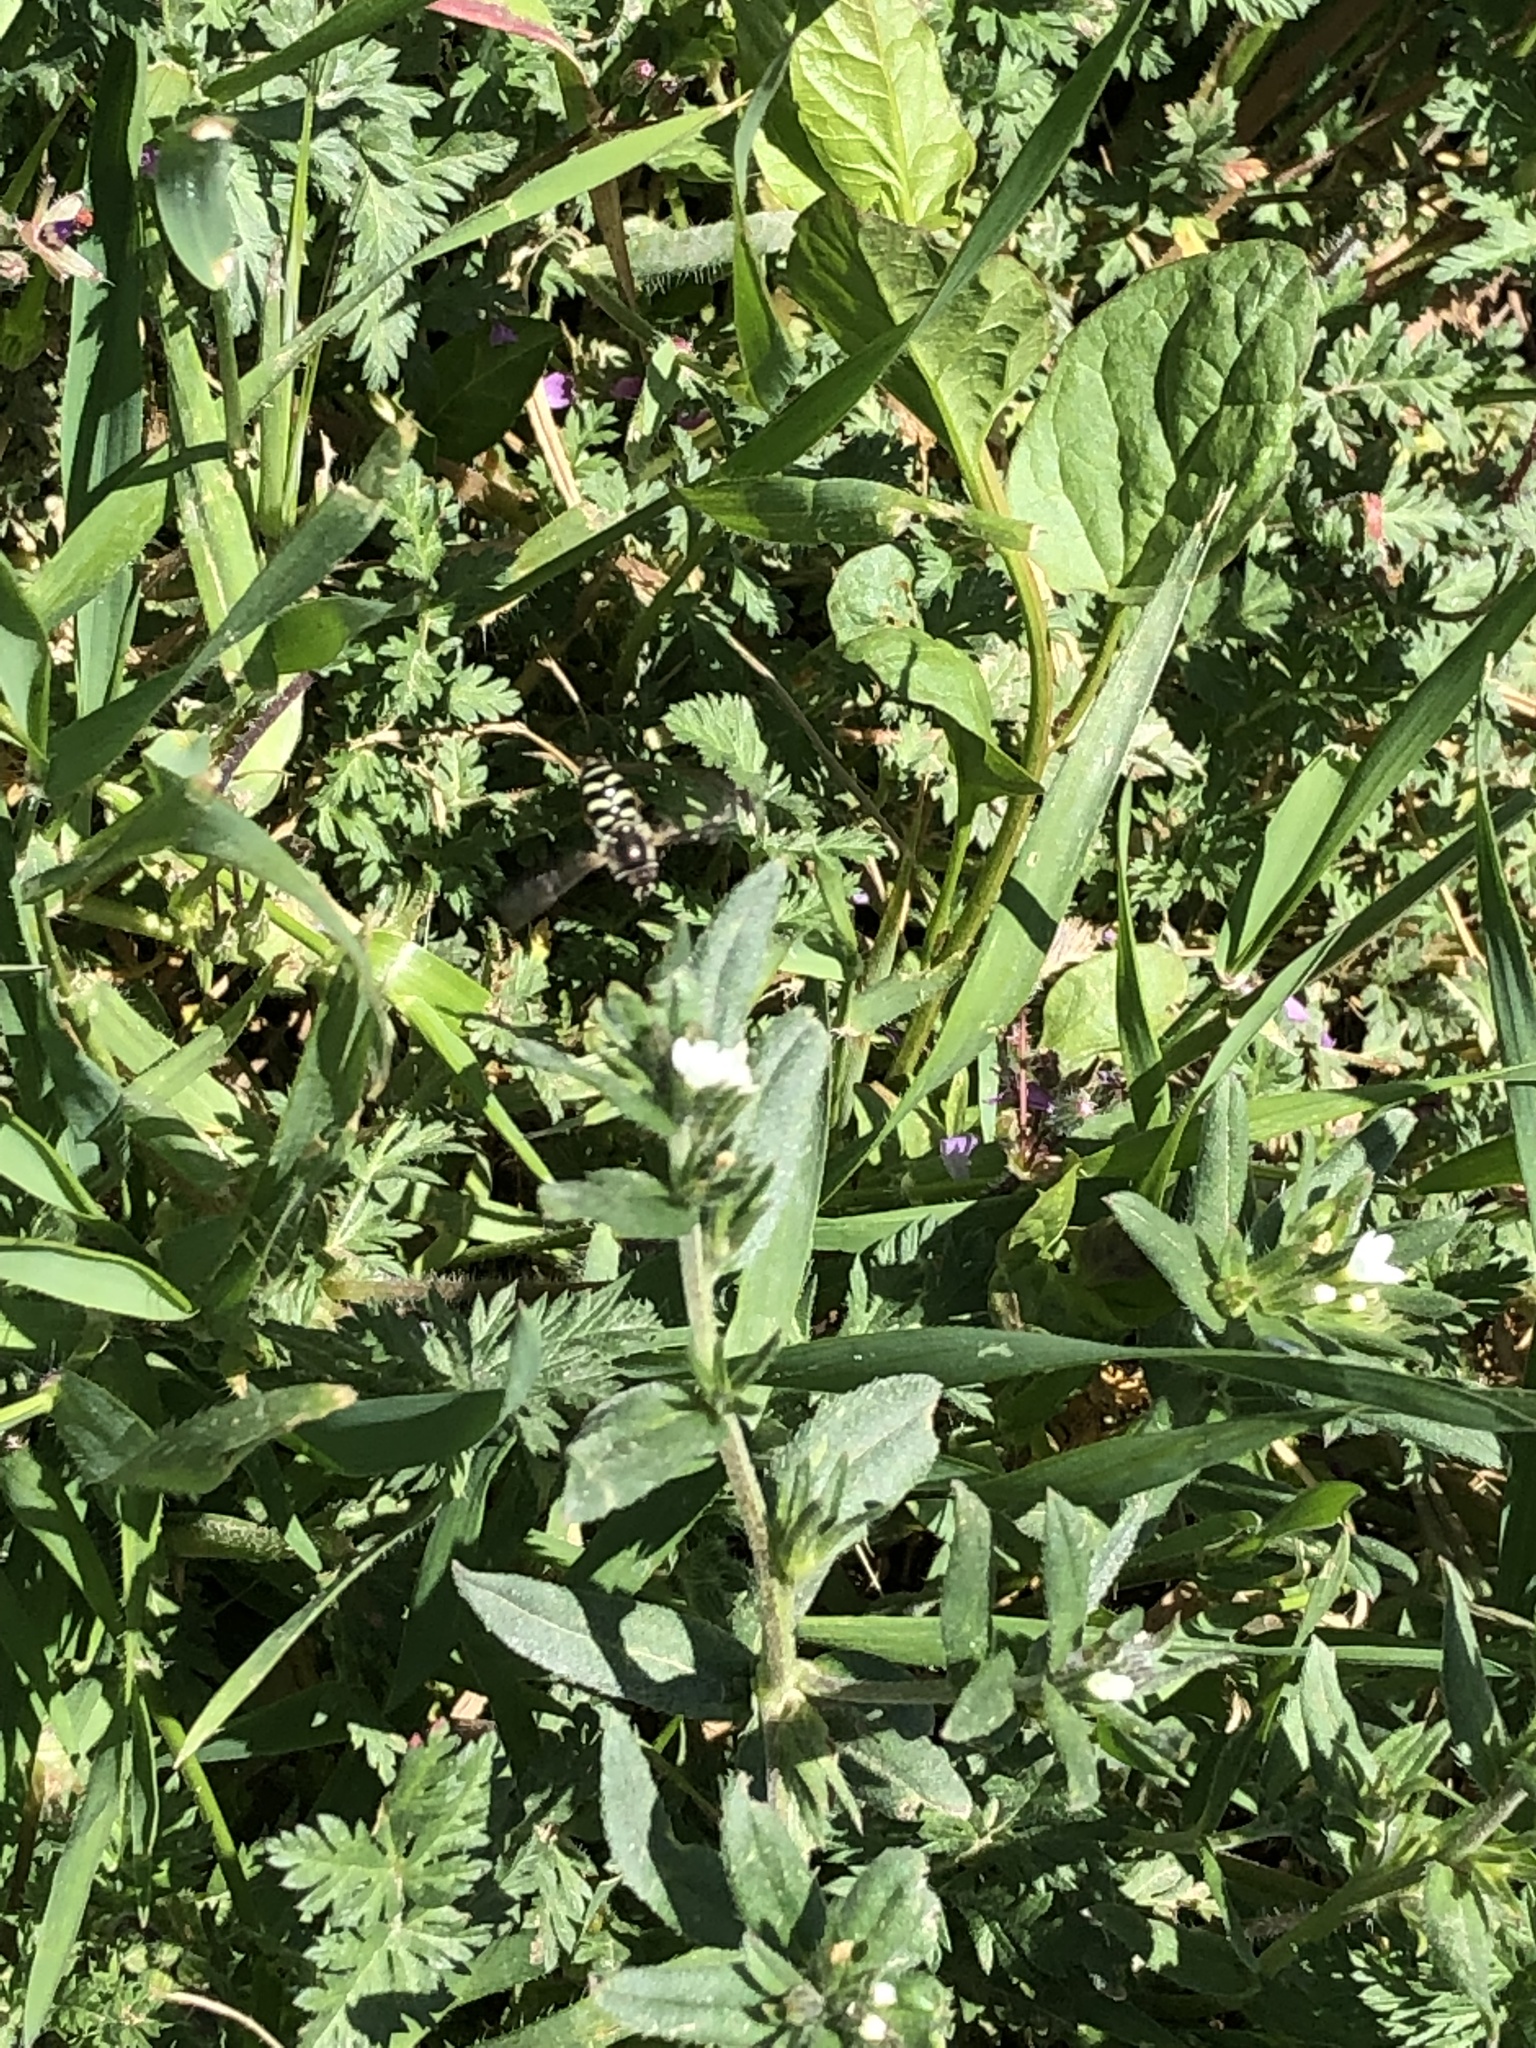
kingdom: Animalia
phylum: Arthropoda
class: Insecta
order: Diptera
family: Syrphidae
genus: Eupeodes
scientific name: Eupeodes volucris
